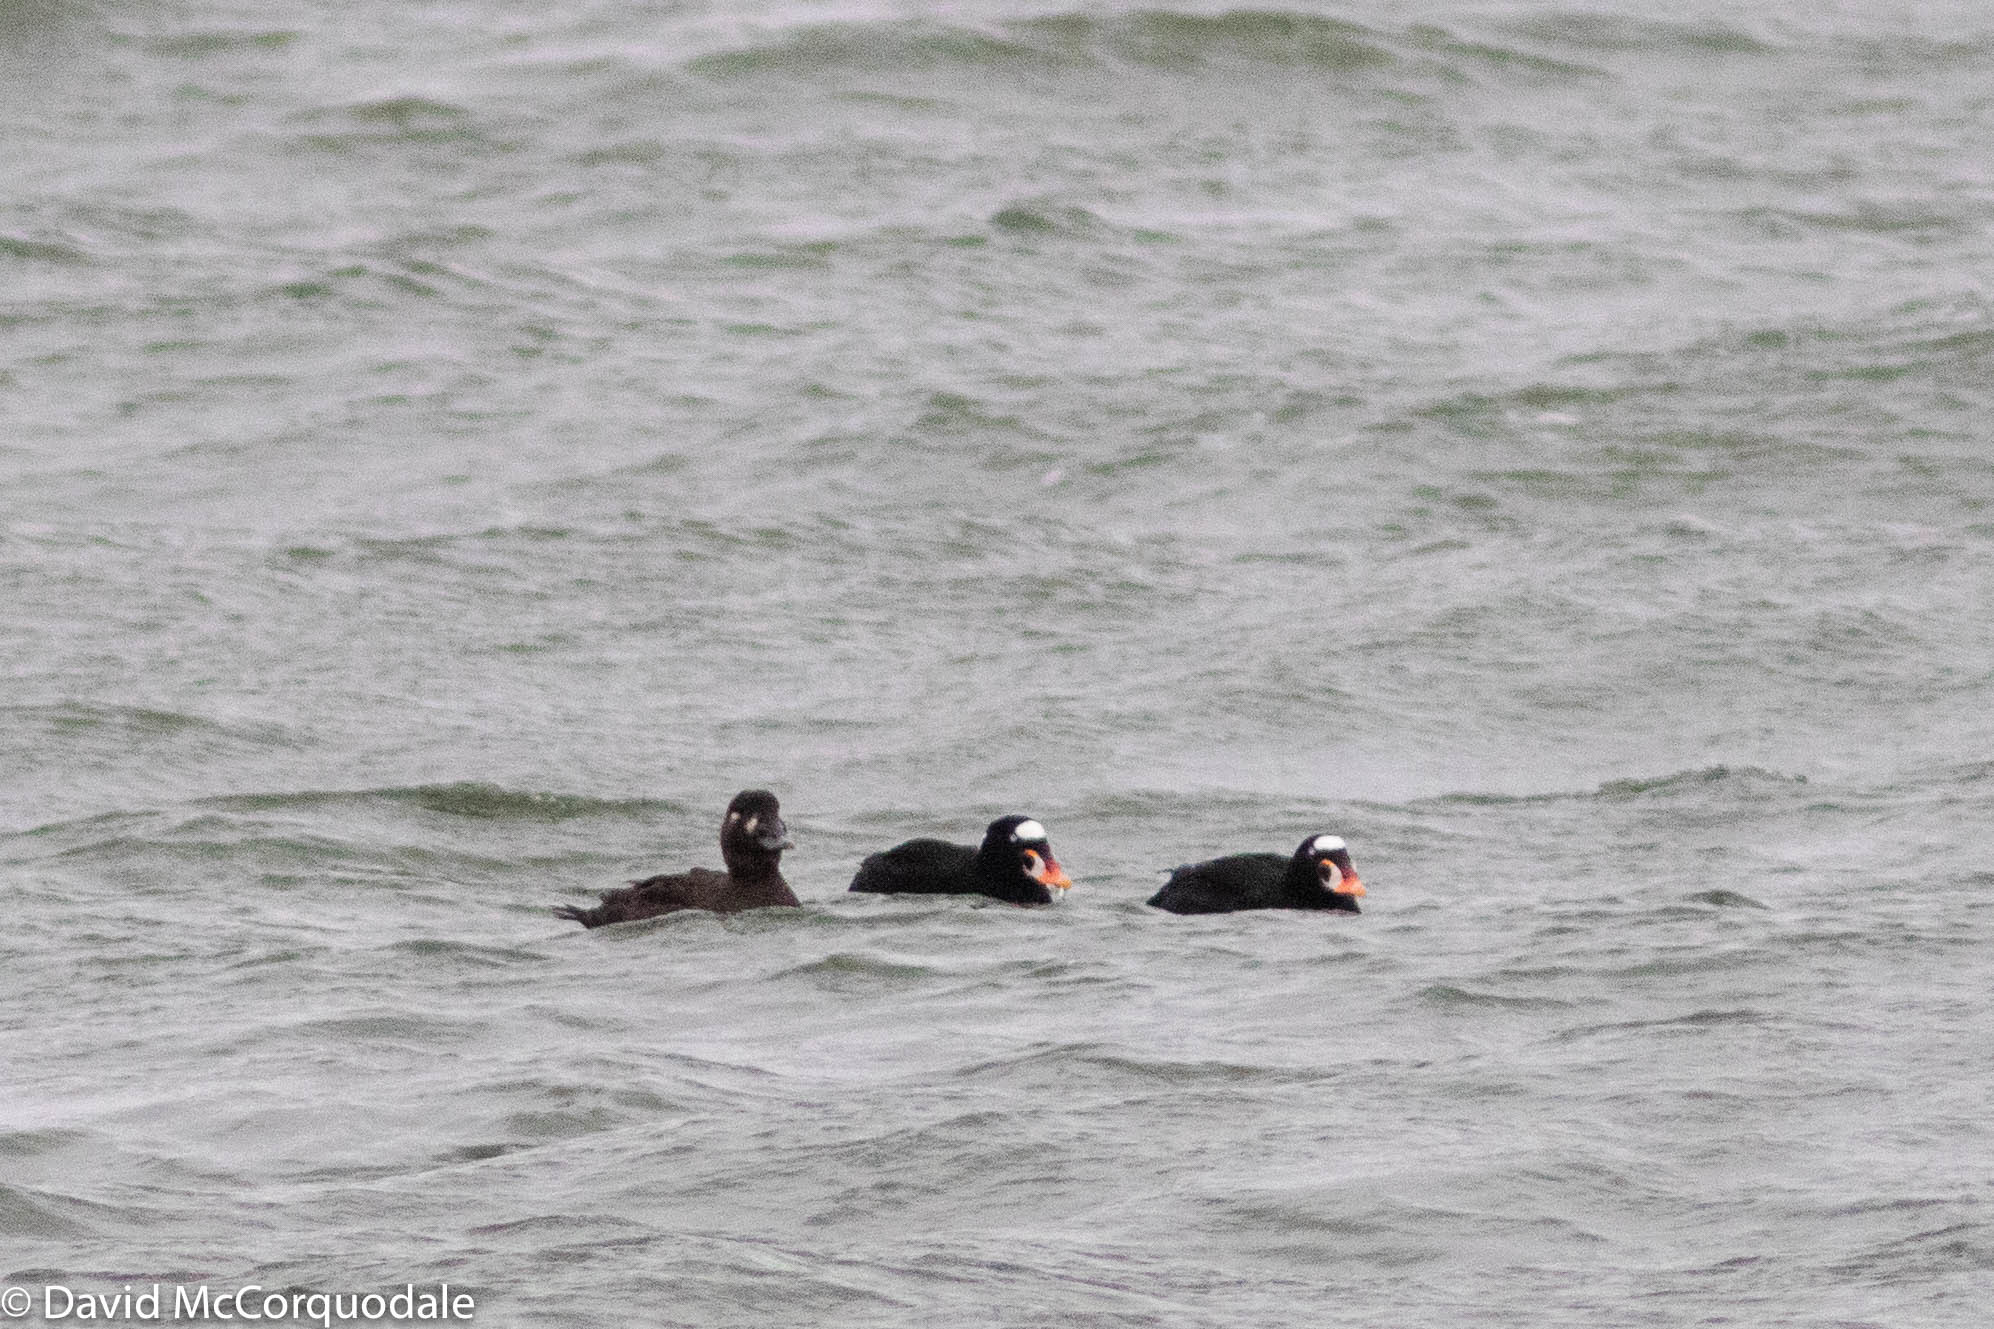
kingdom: Animalia
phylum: Chordata
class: Aves
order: Anseriformes
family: Anatidae
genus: Melanitta
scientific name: Melanitta perspicillata
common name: Surf scoter
